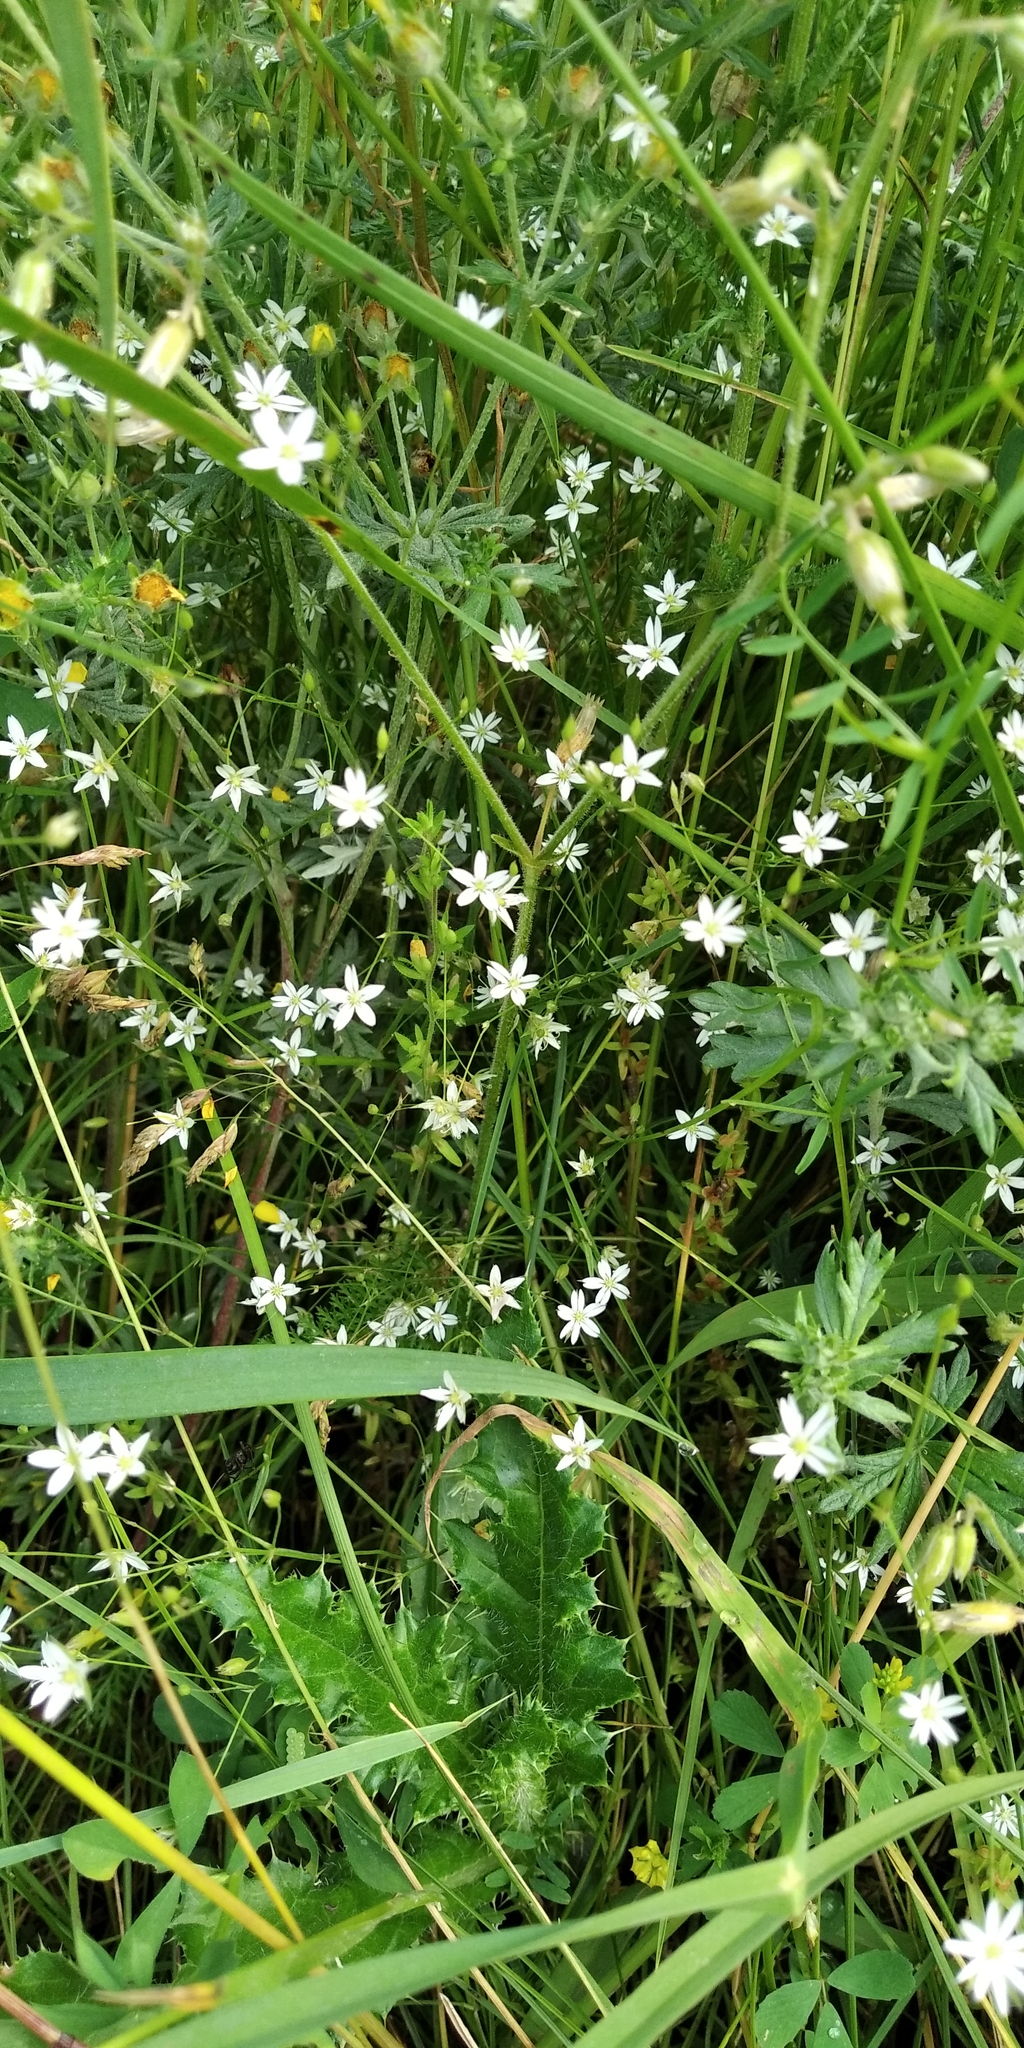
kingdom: Plantae
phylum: Tracheophyta
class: Magnoliopsida
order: Caryophyllales
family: Caryophyllaceae
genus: Stellaria
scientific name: Stellaria graminea
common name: Grass-like starwort
